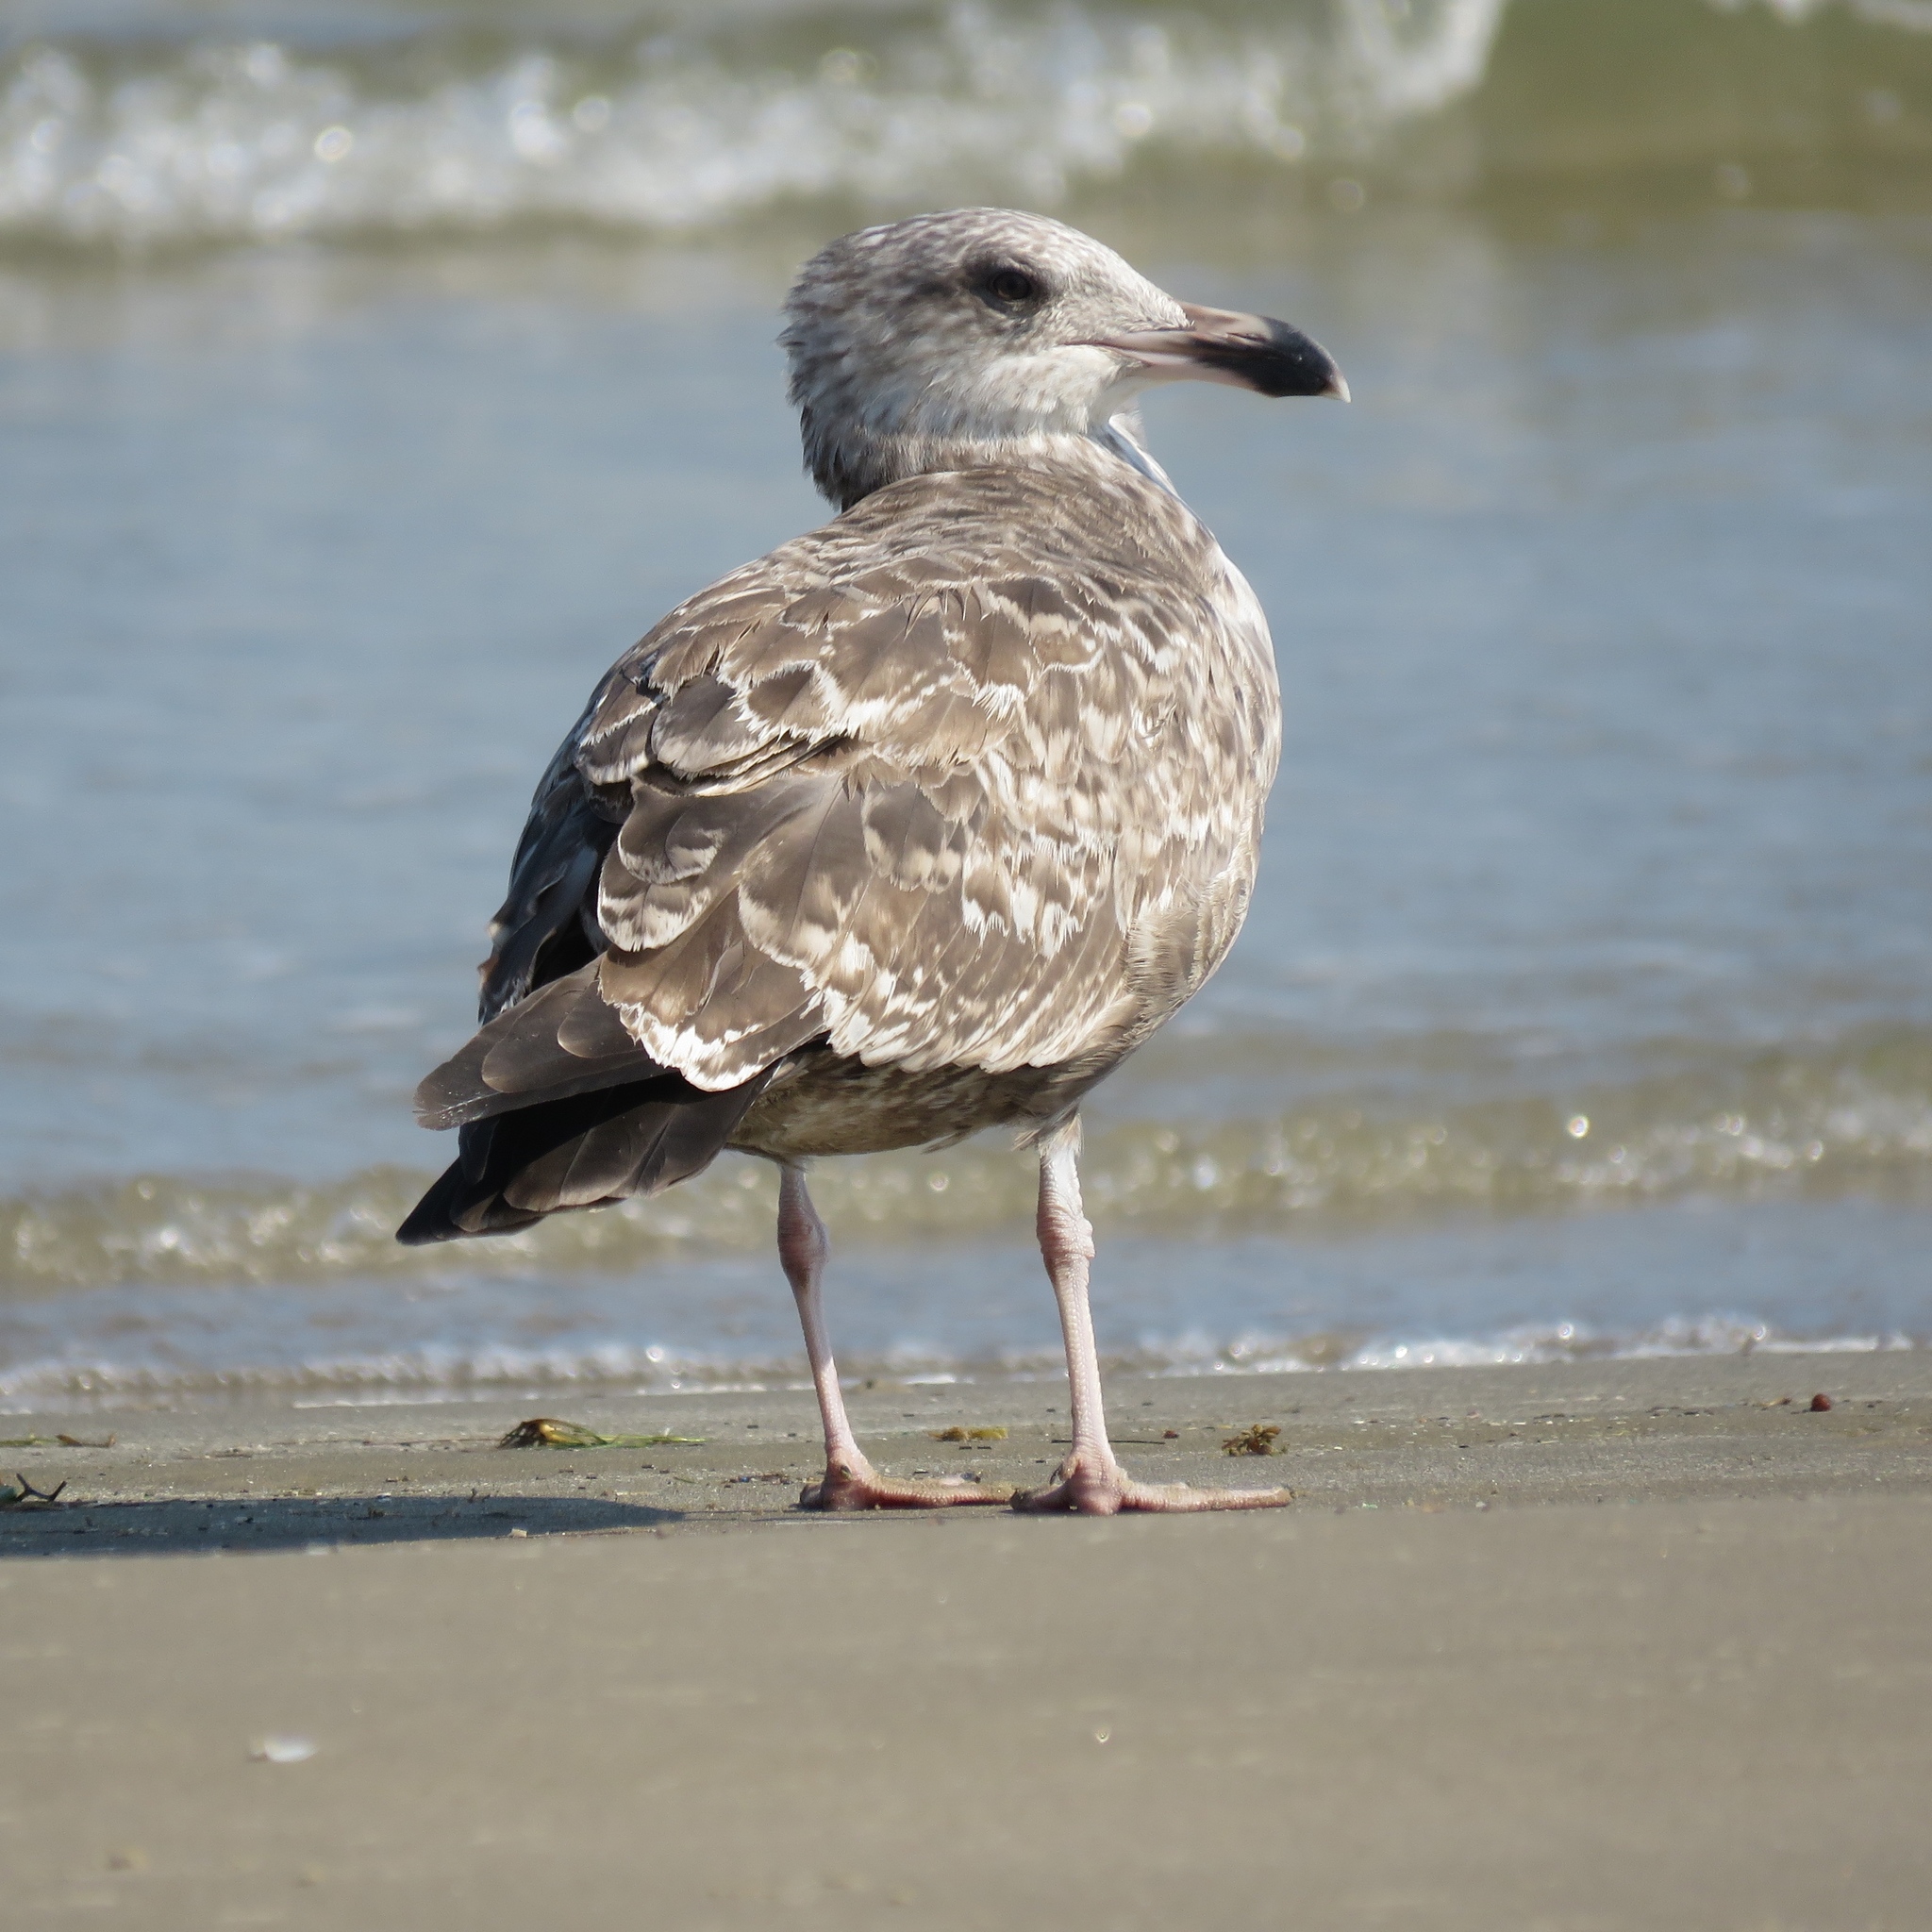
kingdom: Animalia
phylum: Chordata
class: Aves
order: Charadriiformes
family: Laridae
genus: Larus
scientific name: Larus argentatus
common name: Herring gull
